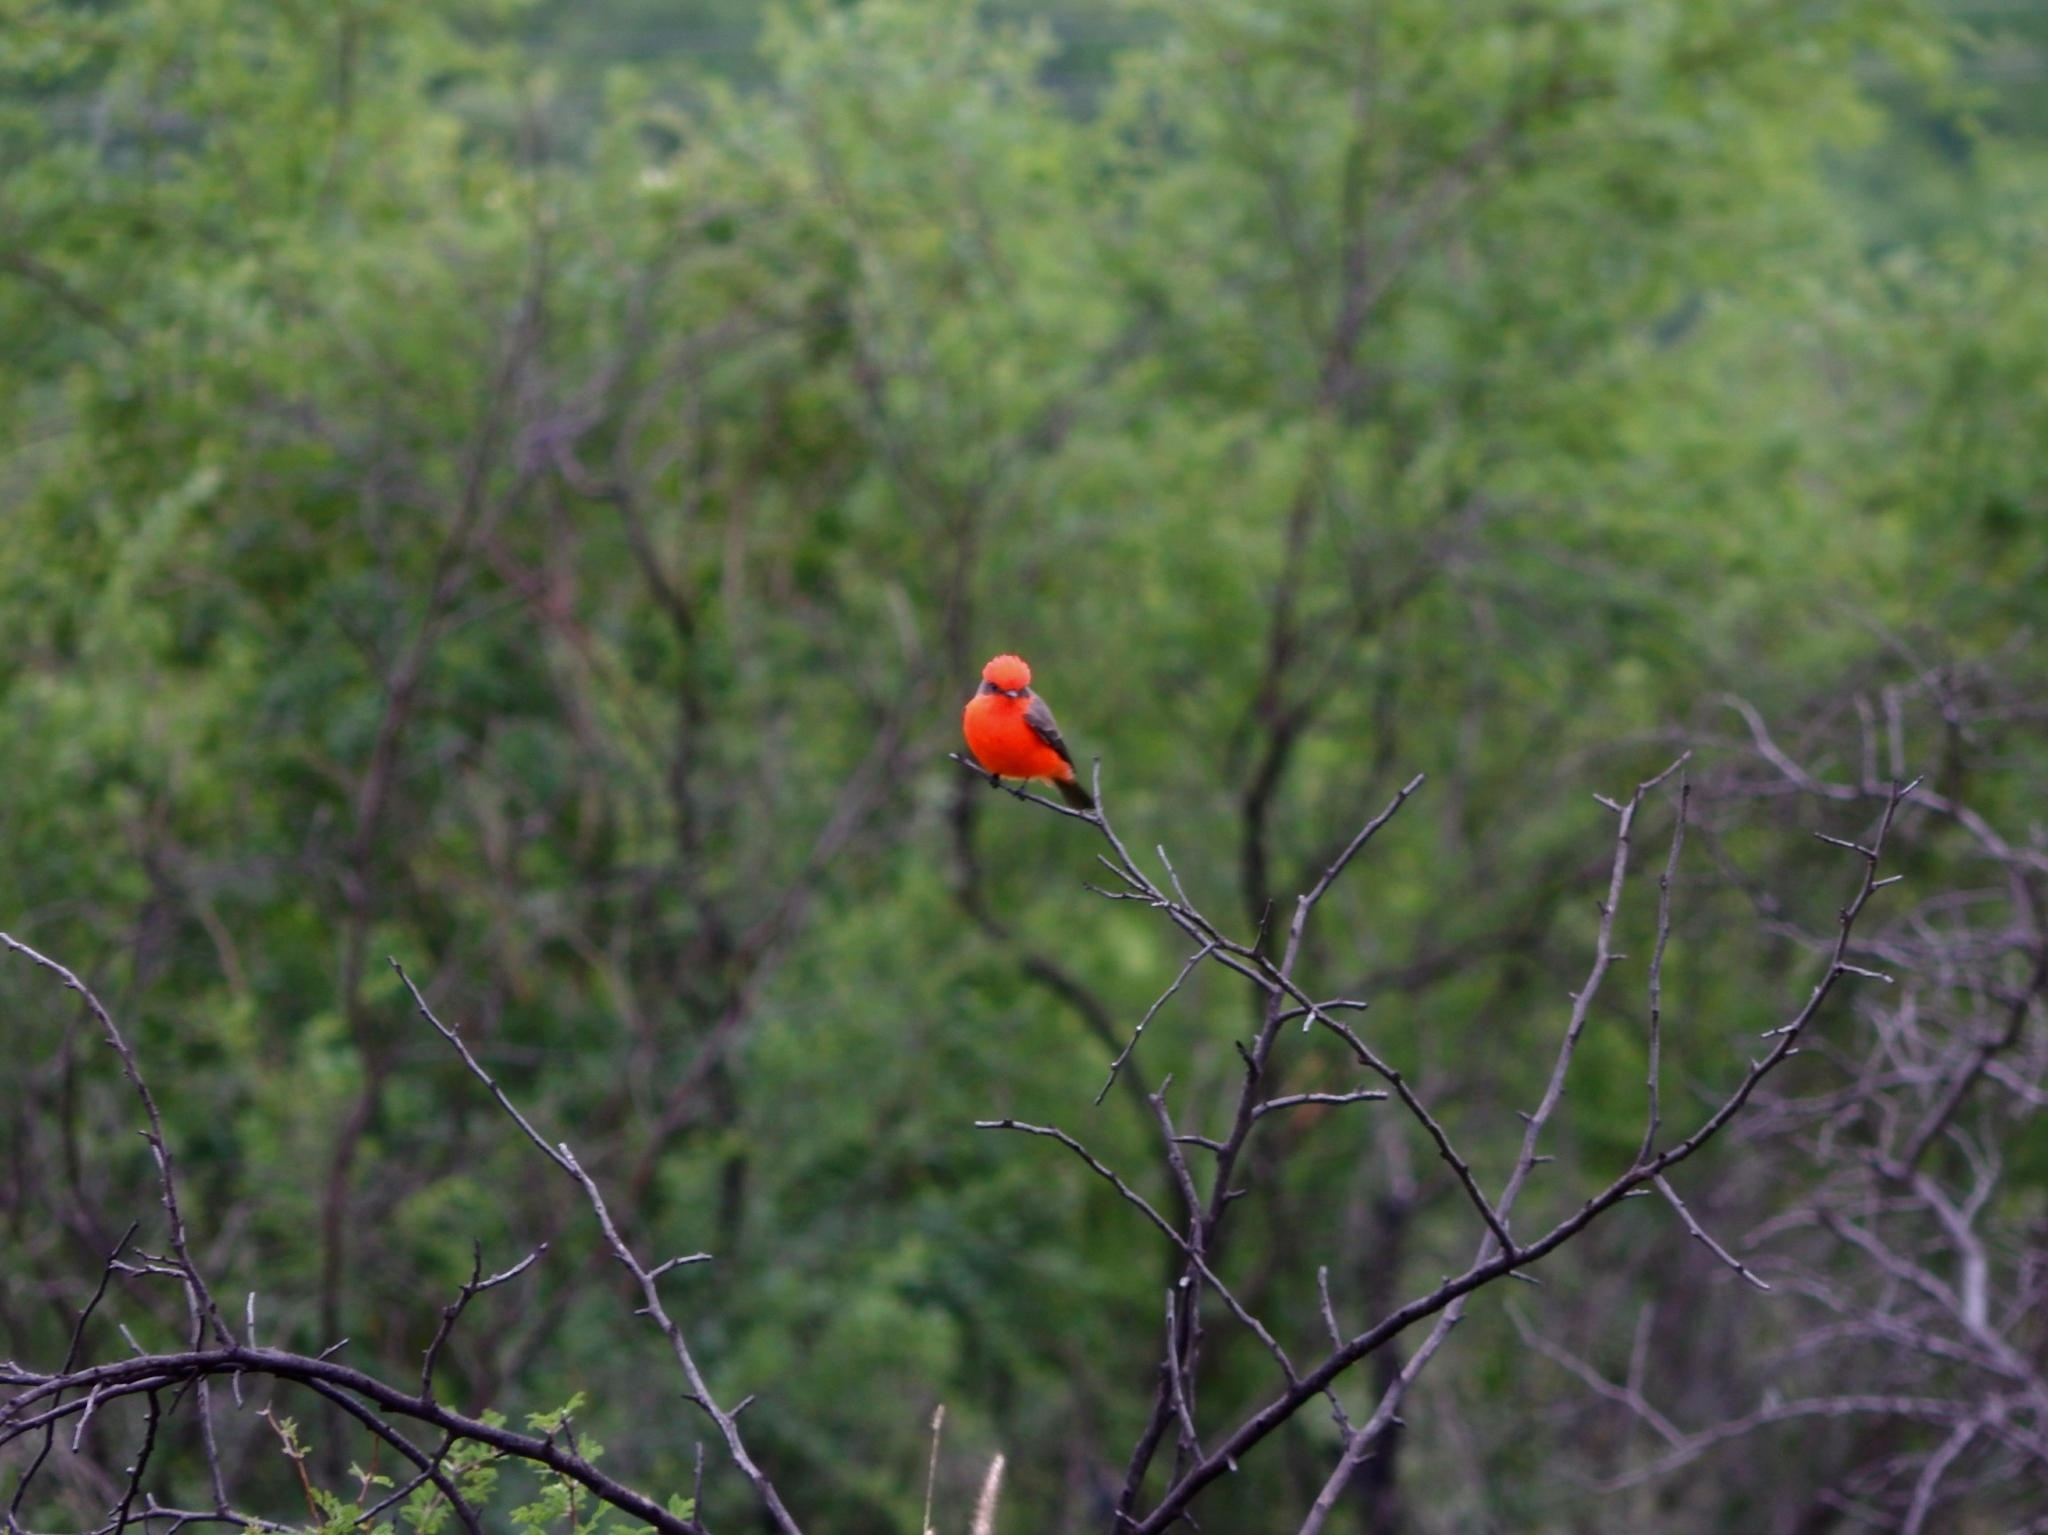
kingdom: Animalia
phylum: Chordata
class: Aves
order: Passeriformes
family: Tyrannidae
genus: Pyrocephalus
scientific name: Pyrocephalus rubinus
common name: Vermilion flycatcher
